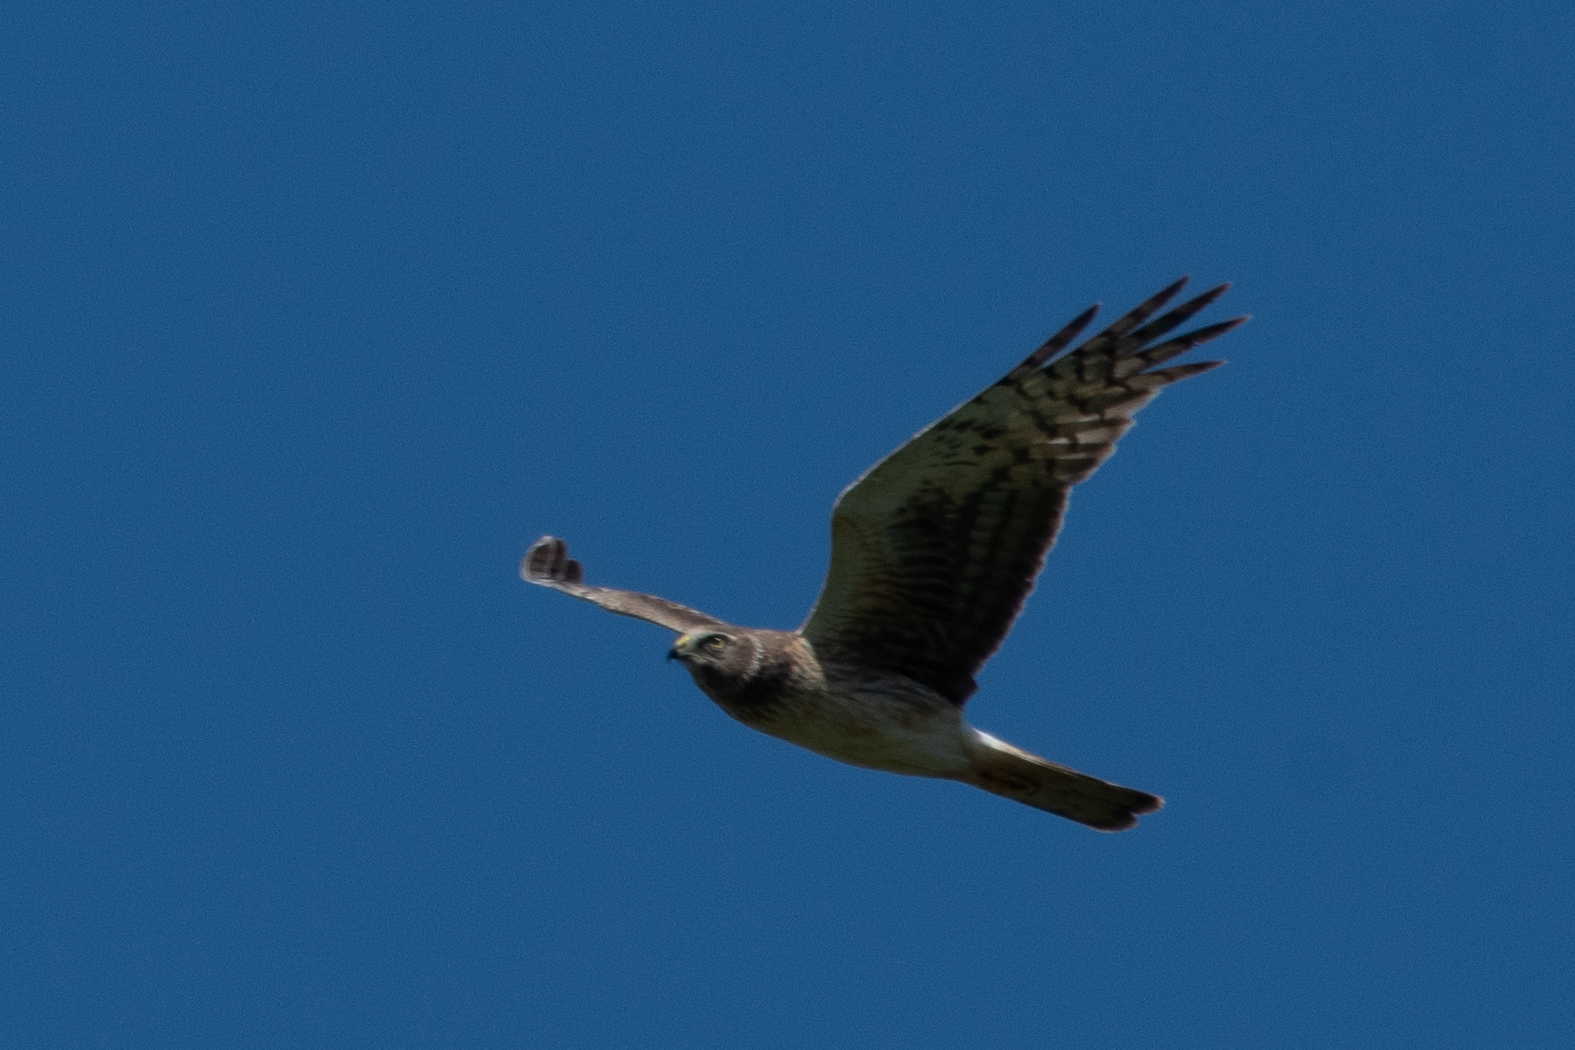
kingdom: Animalia
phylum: Chordata
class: Aves
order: Accipitriformes
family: Accipitridae
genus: Circus
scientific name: Circus cyaneus
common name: Hen harrier
